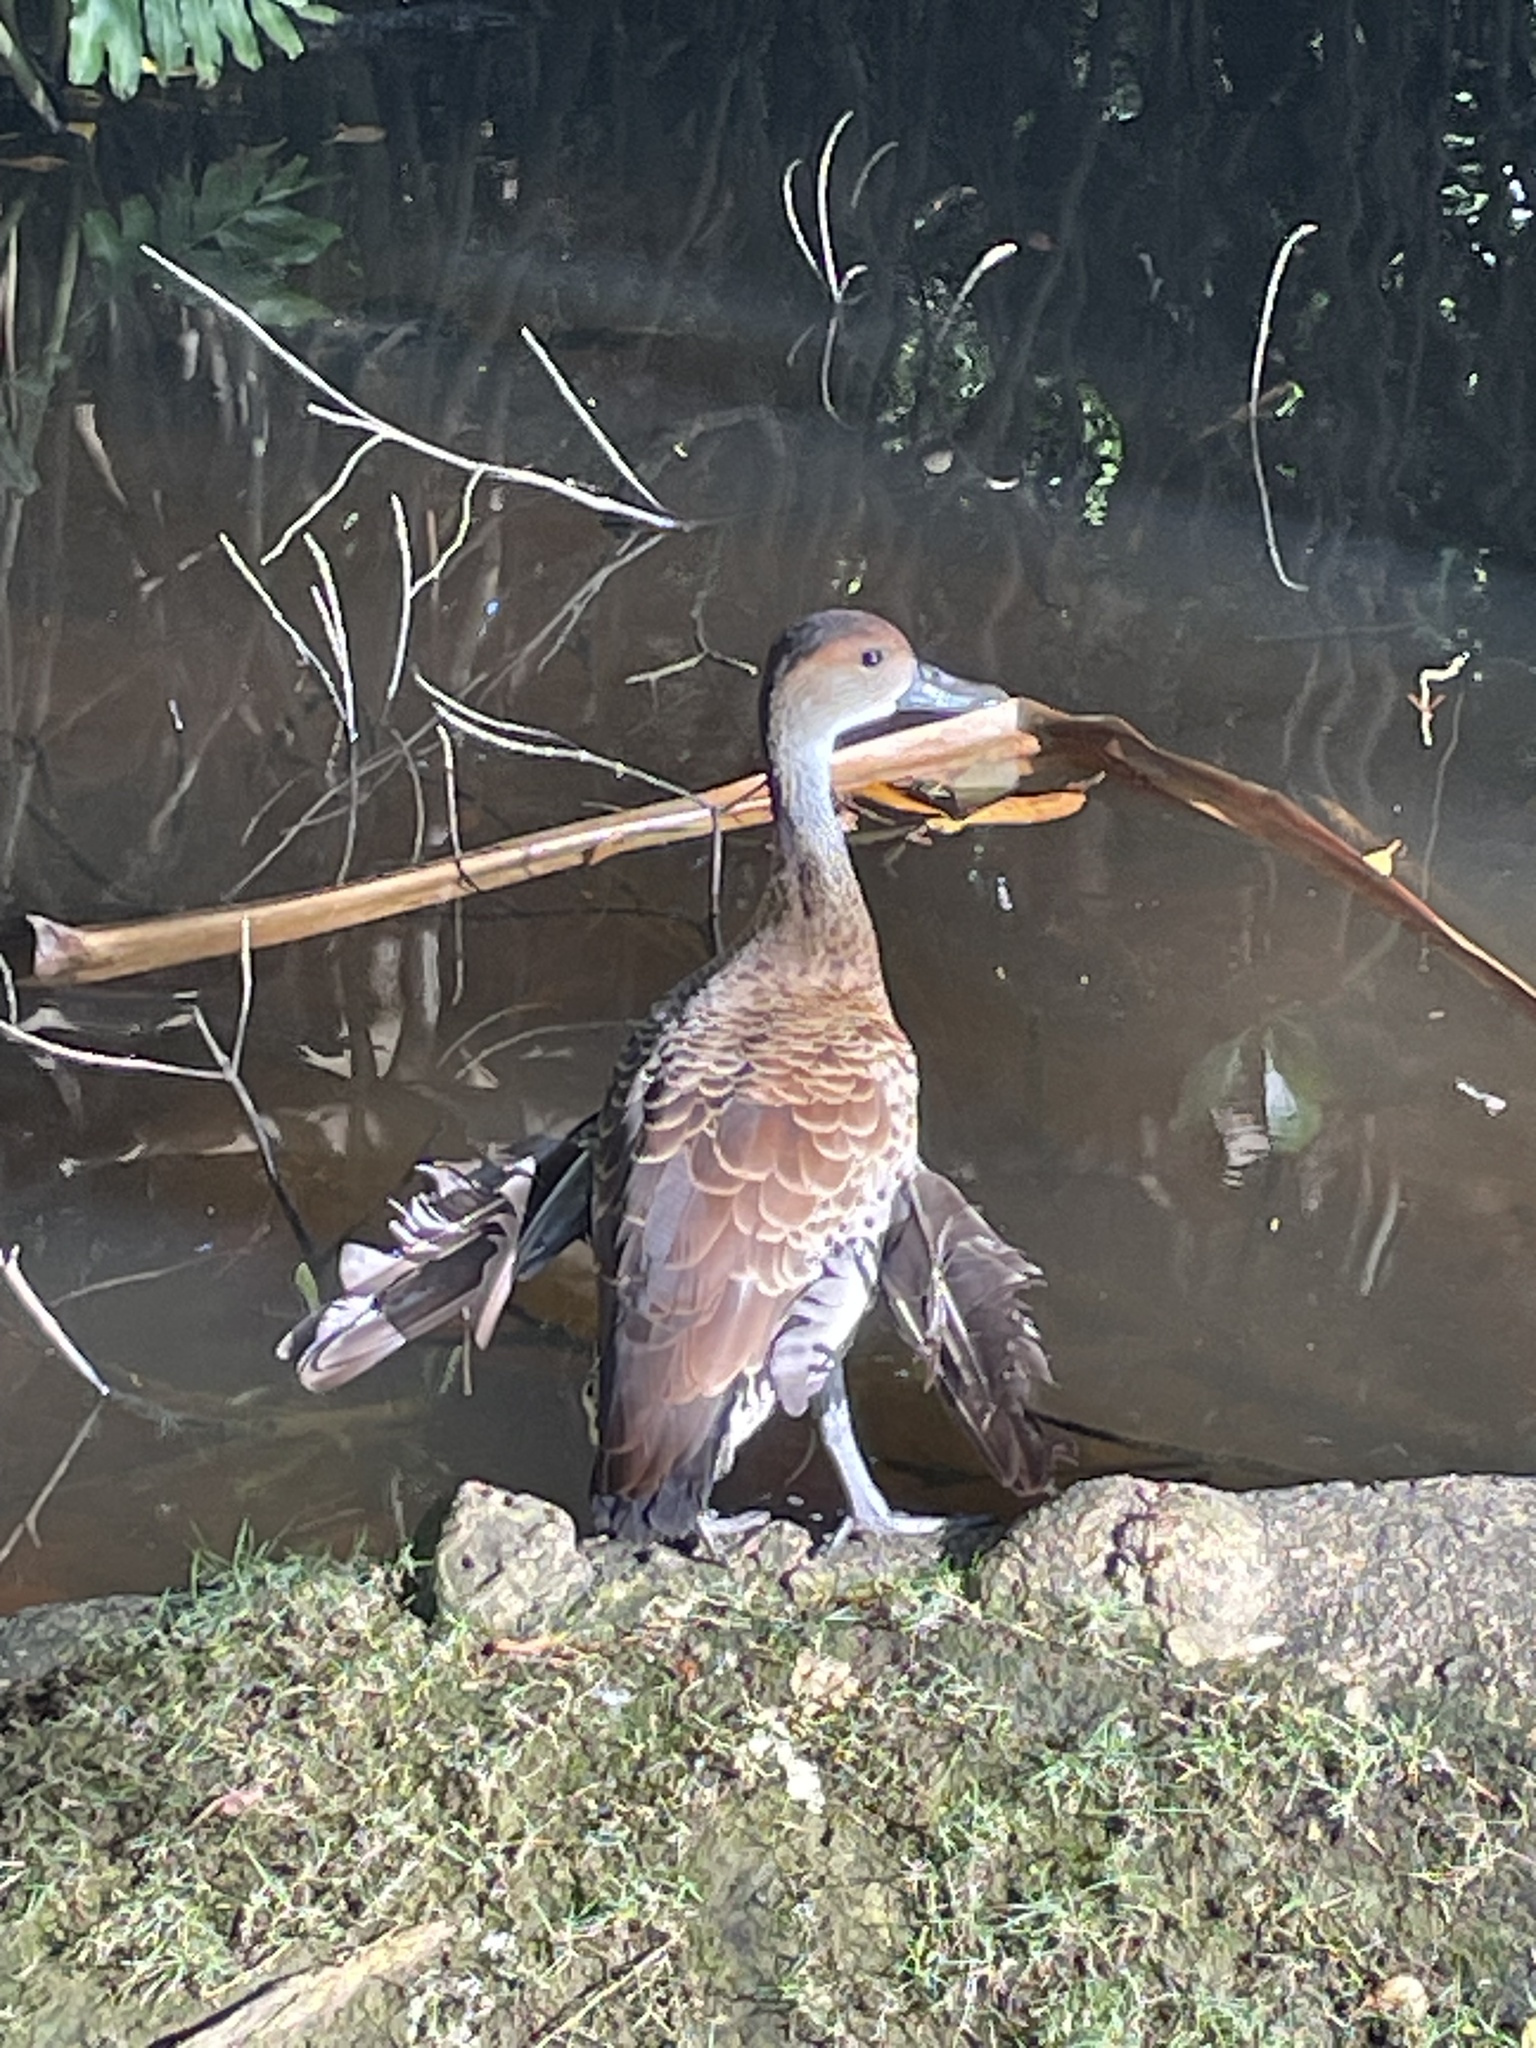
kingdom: Animalia
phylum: Chordata
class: Aves
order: Anseriformes
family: Anatidae
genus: Dendrocygna
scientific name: Dendrocygna arborea
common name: West indian whistling duck
